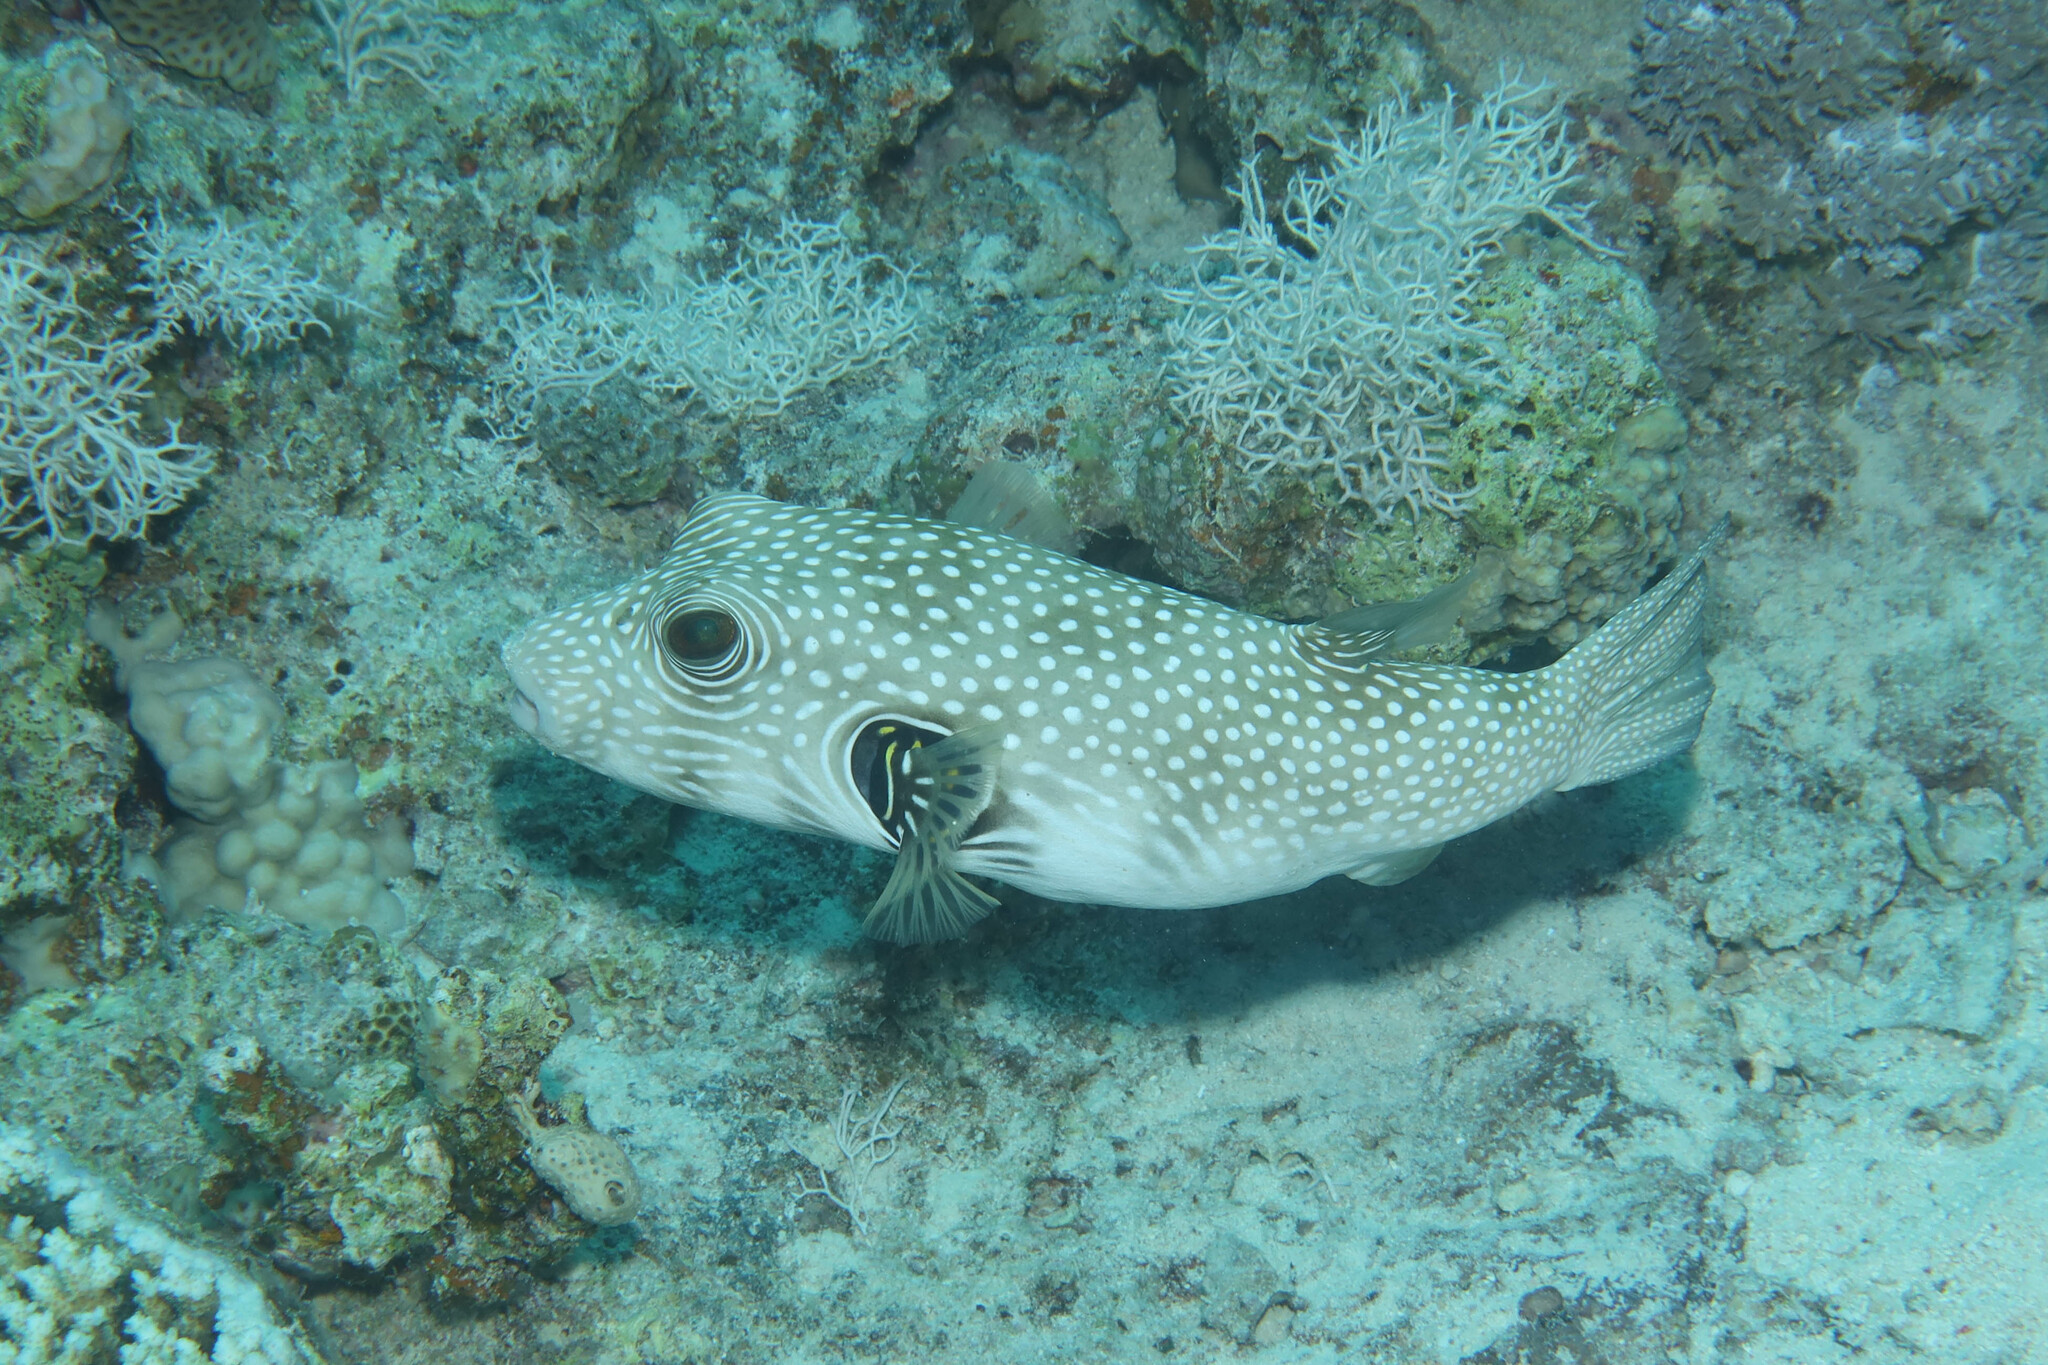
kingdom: Animalia
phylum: Chordata
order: Tetraodontiformes
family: Tetraodontidae
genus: Arothron
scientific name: Arothron hispidus
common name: Stripebelly puffer
